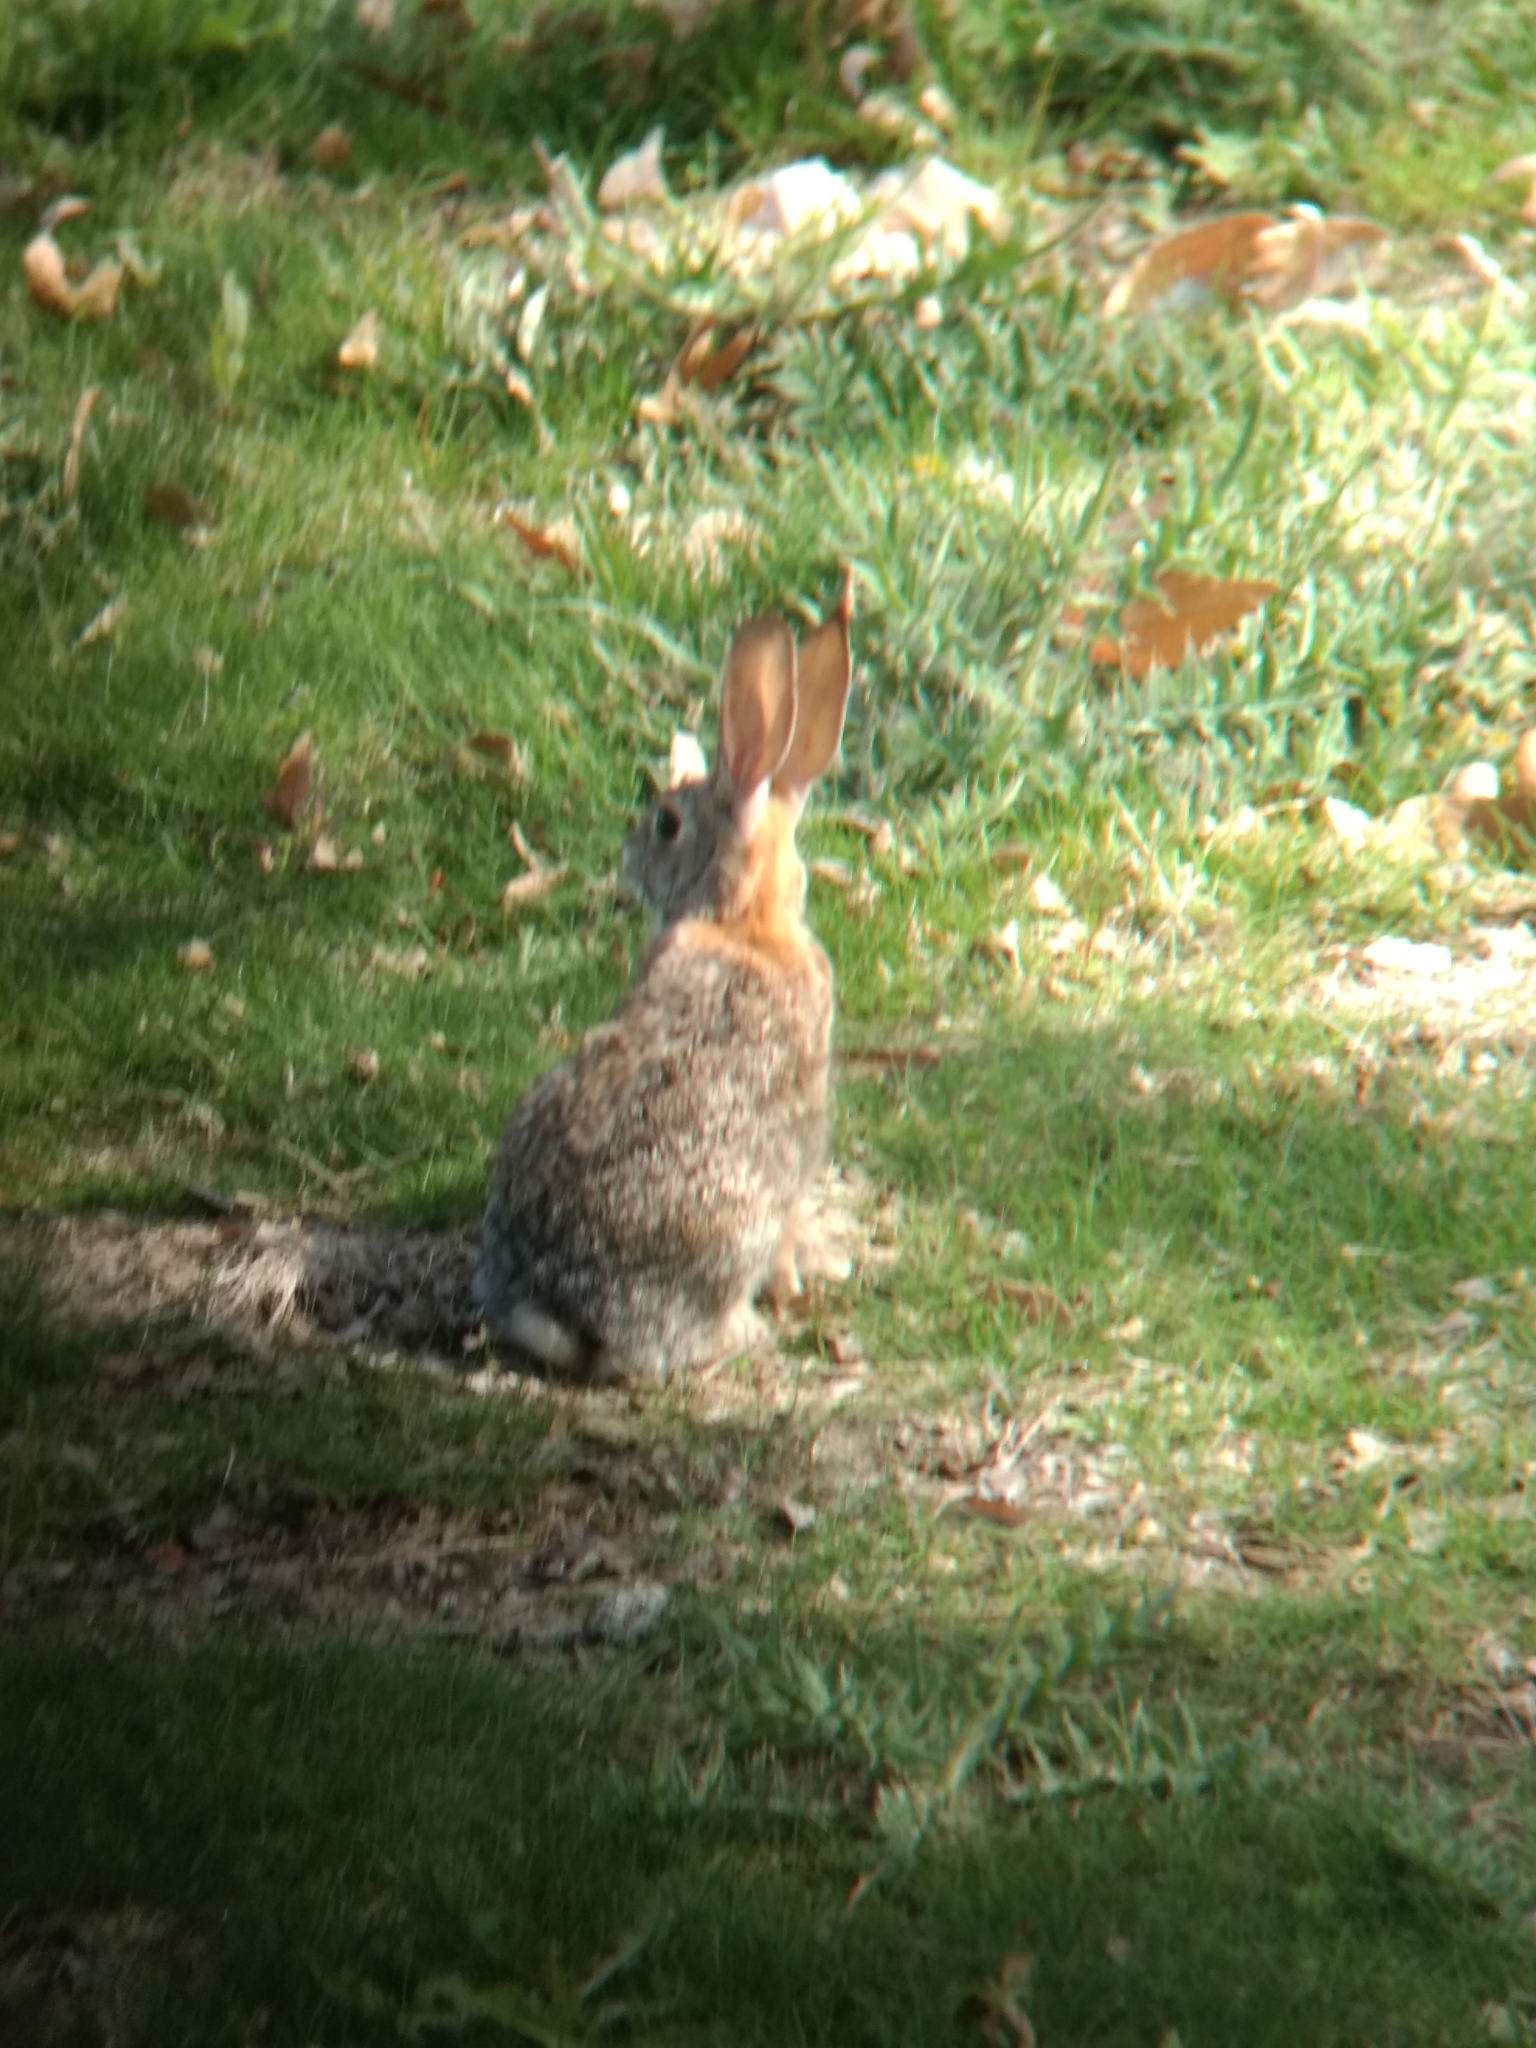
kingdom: Animalia
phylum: Chordata
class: Mammalia
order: Lagomorpha
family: Leporidae
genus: Sylvilagus
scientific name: Sylvilagus audubonii
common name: Desert cottontail
